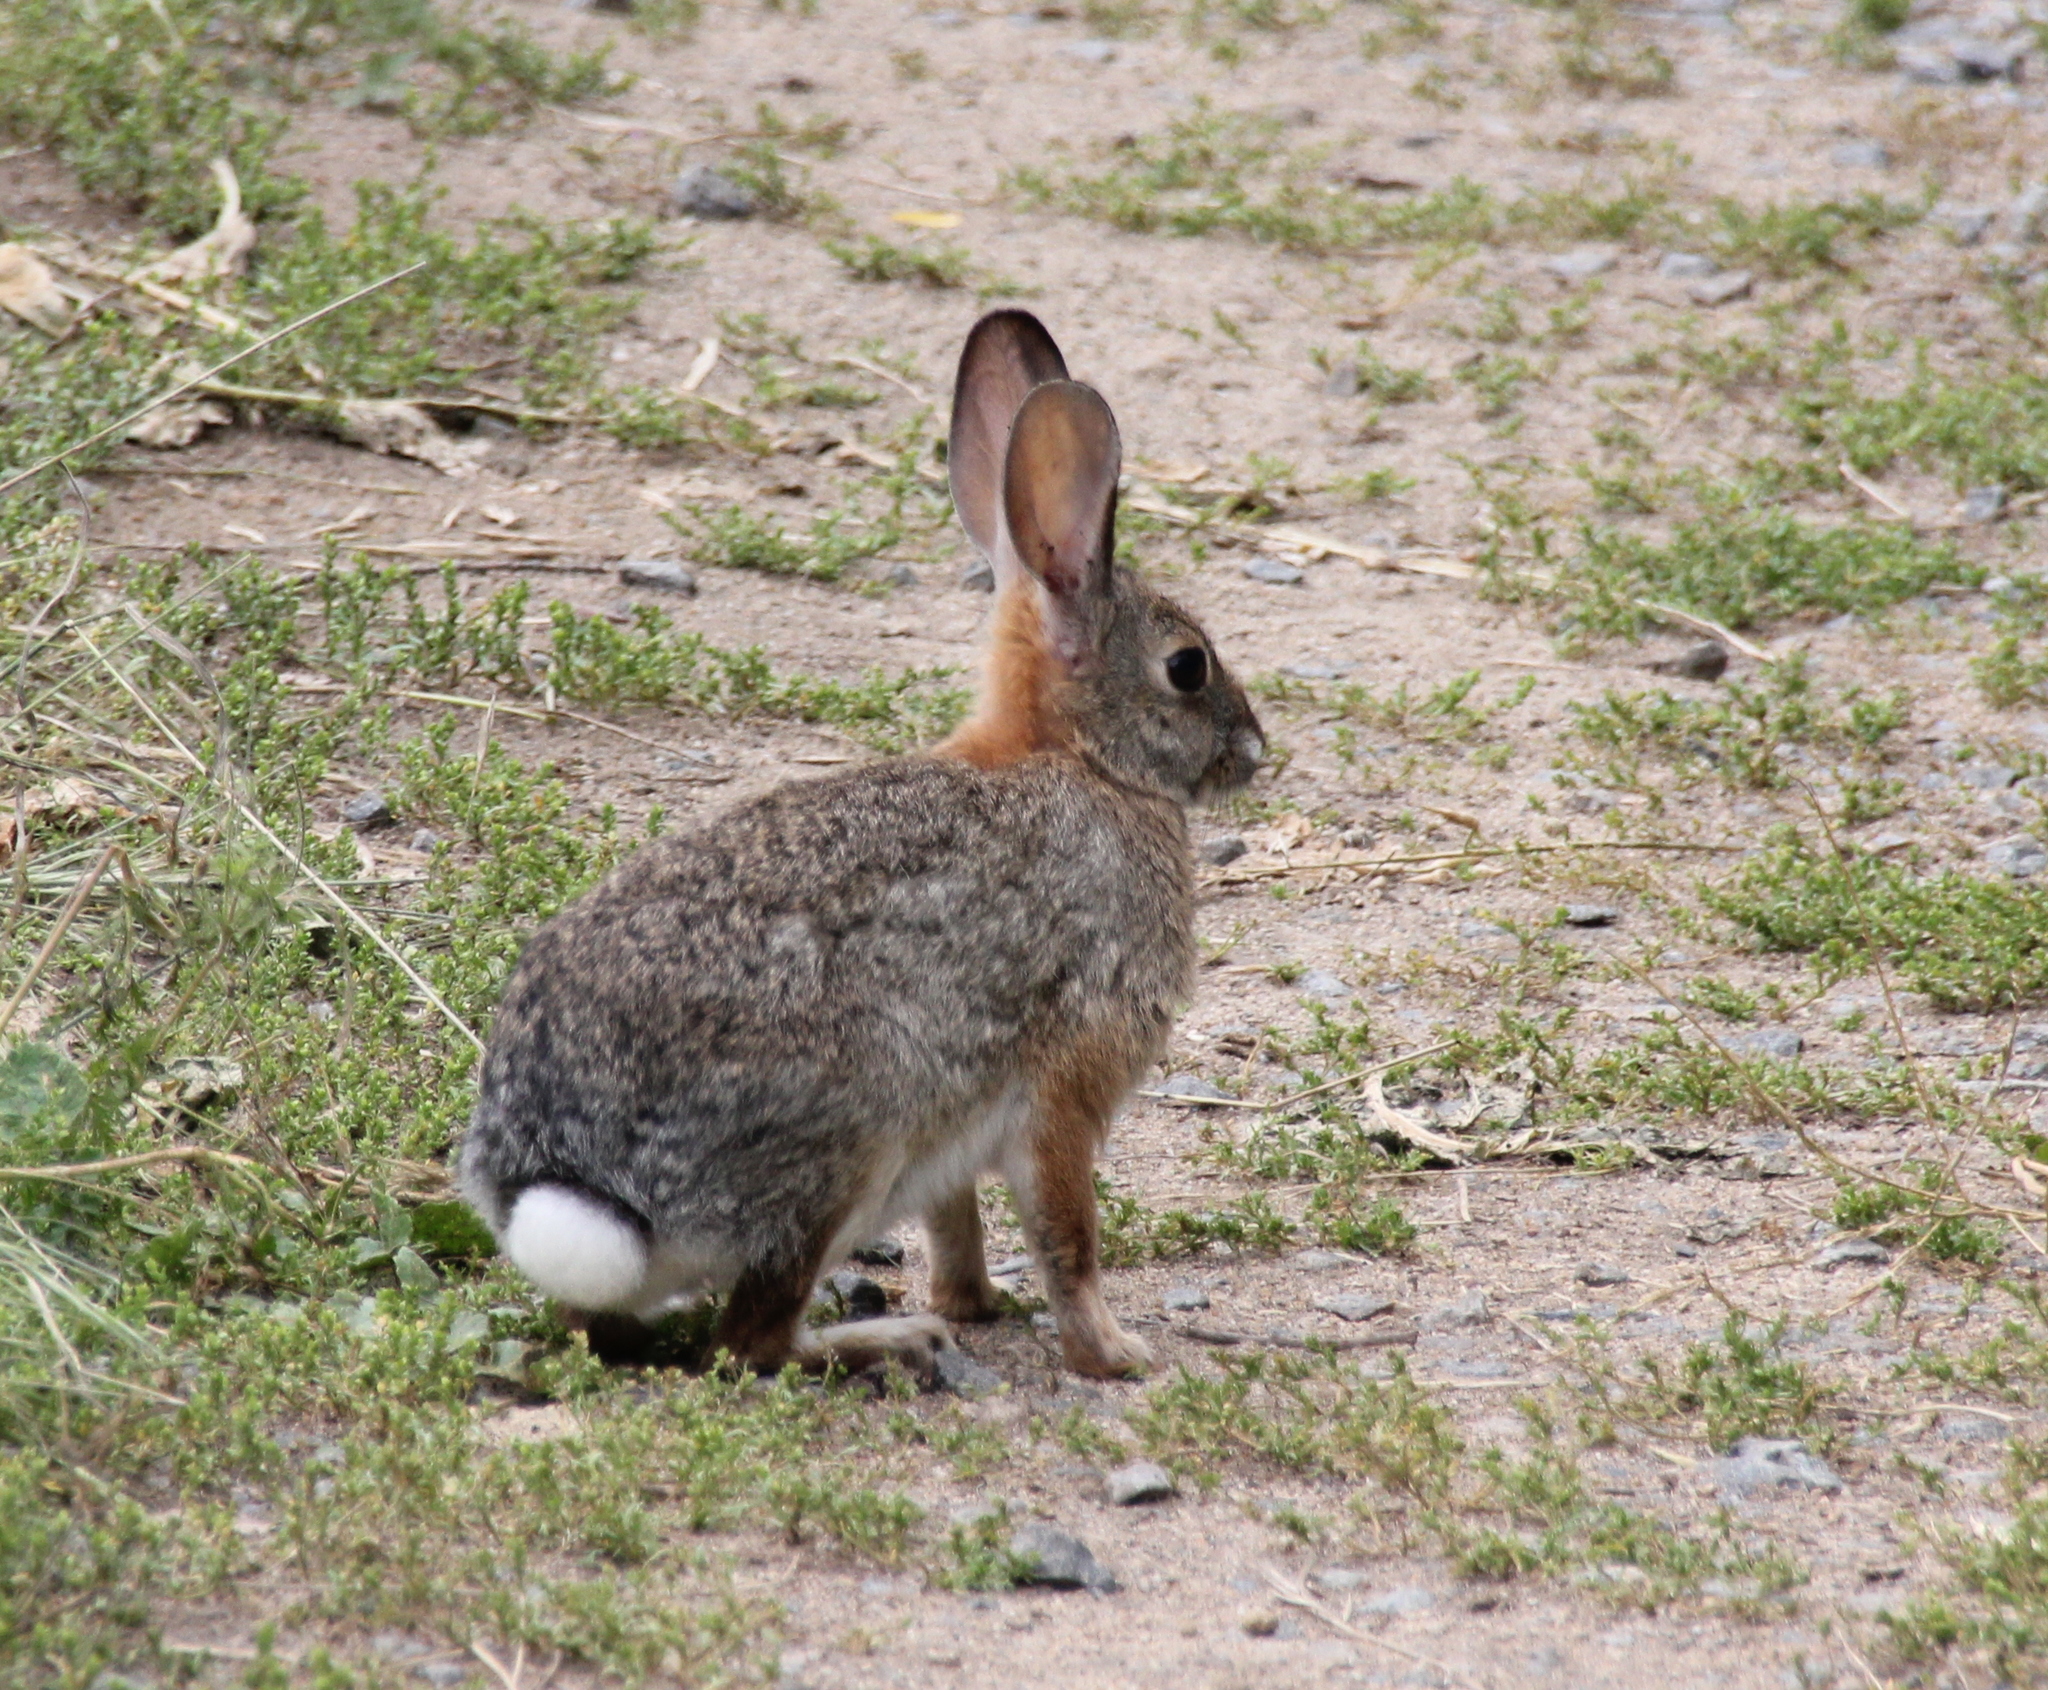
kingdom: Animalia
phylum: Chordata
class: Mammalia
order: Lagomorpha
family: Leporidae
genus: Sylvilagus
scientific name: Sylvilagus audubonii
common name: Desert cottontail
